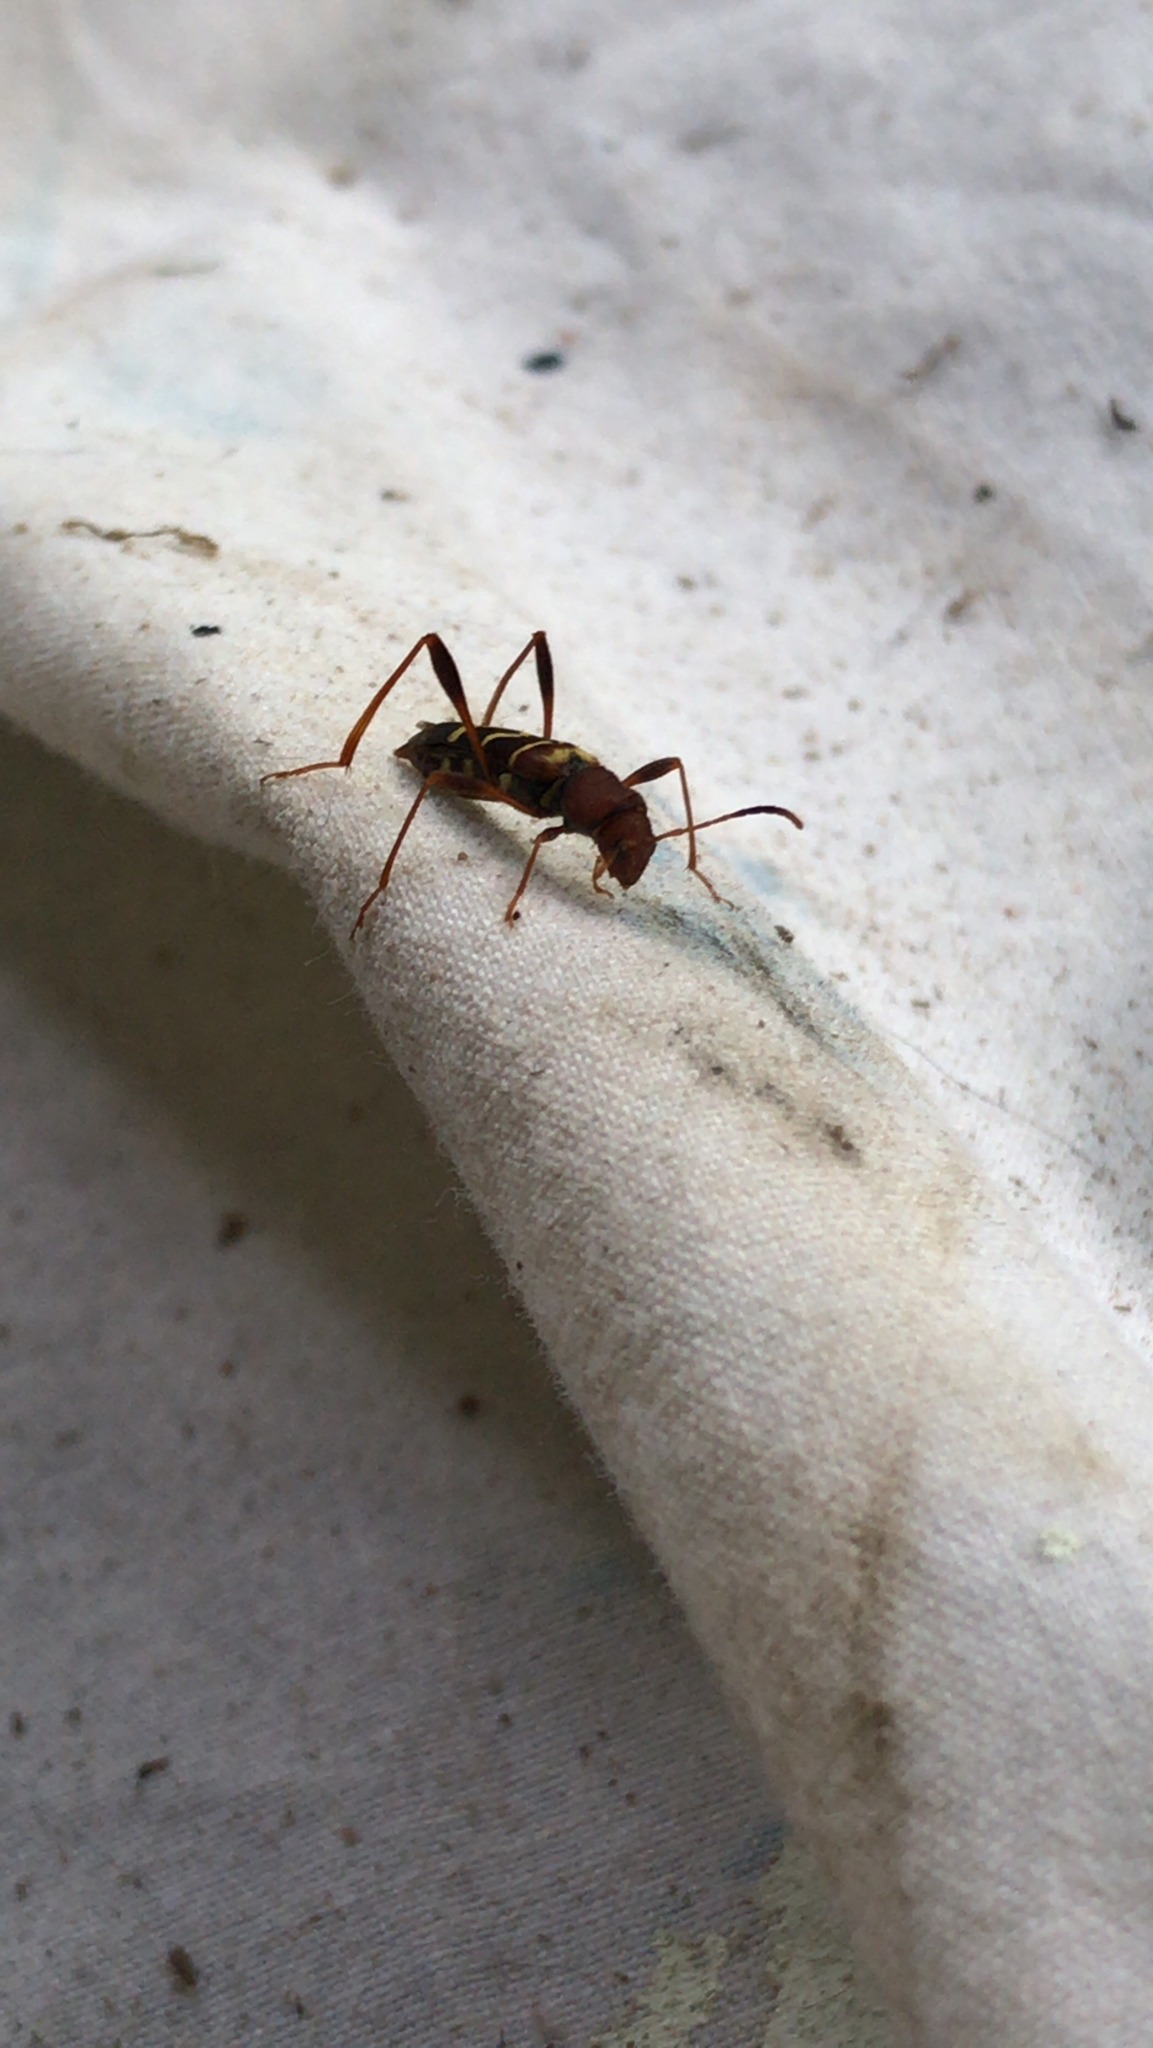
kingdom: Animalia
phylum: Arthropoda
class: Insecta
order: Coleoptera
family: Cerambycidae
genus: Neoclytus
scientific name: Neoclytus acuminatus
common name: Read-headed ash borer
